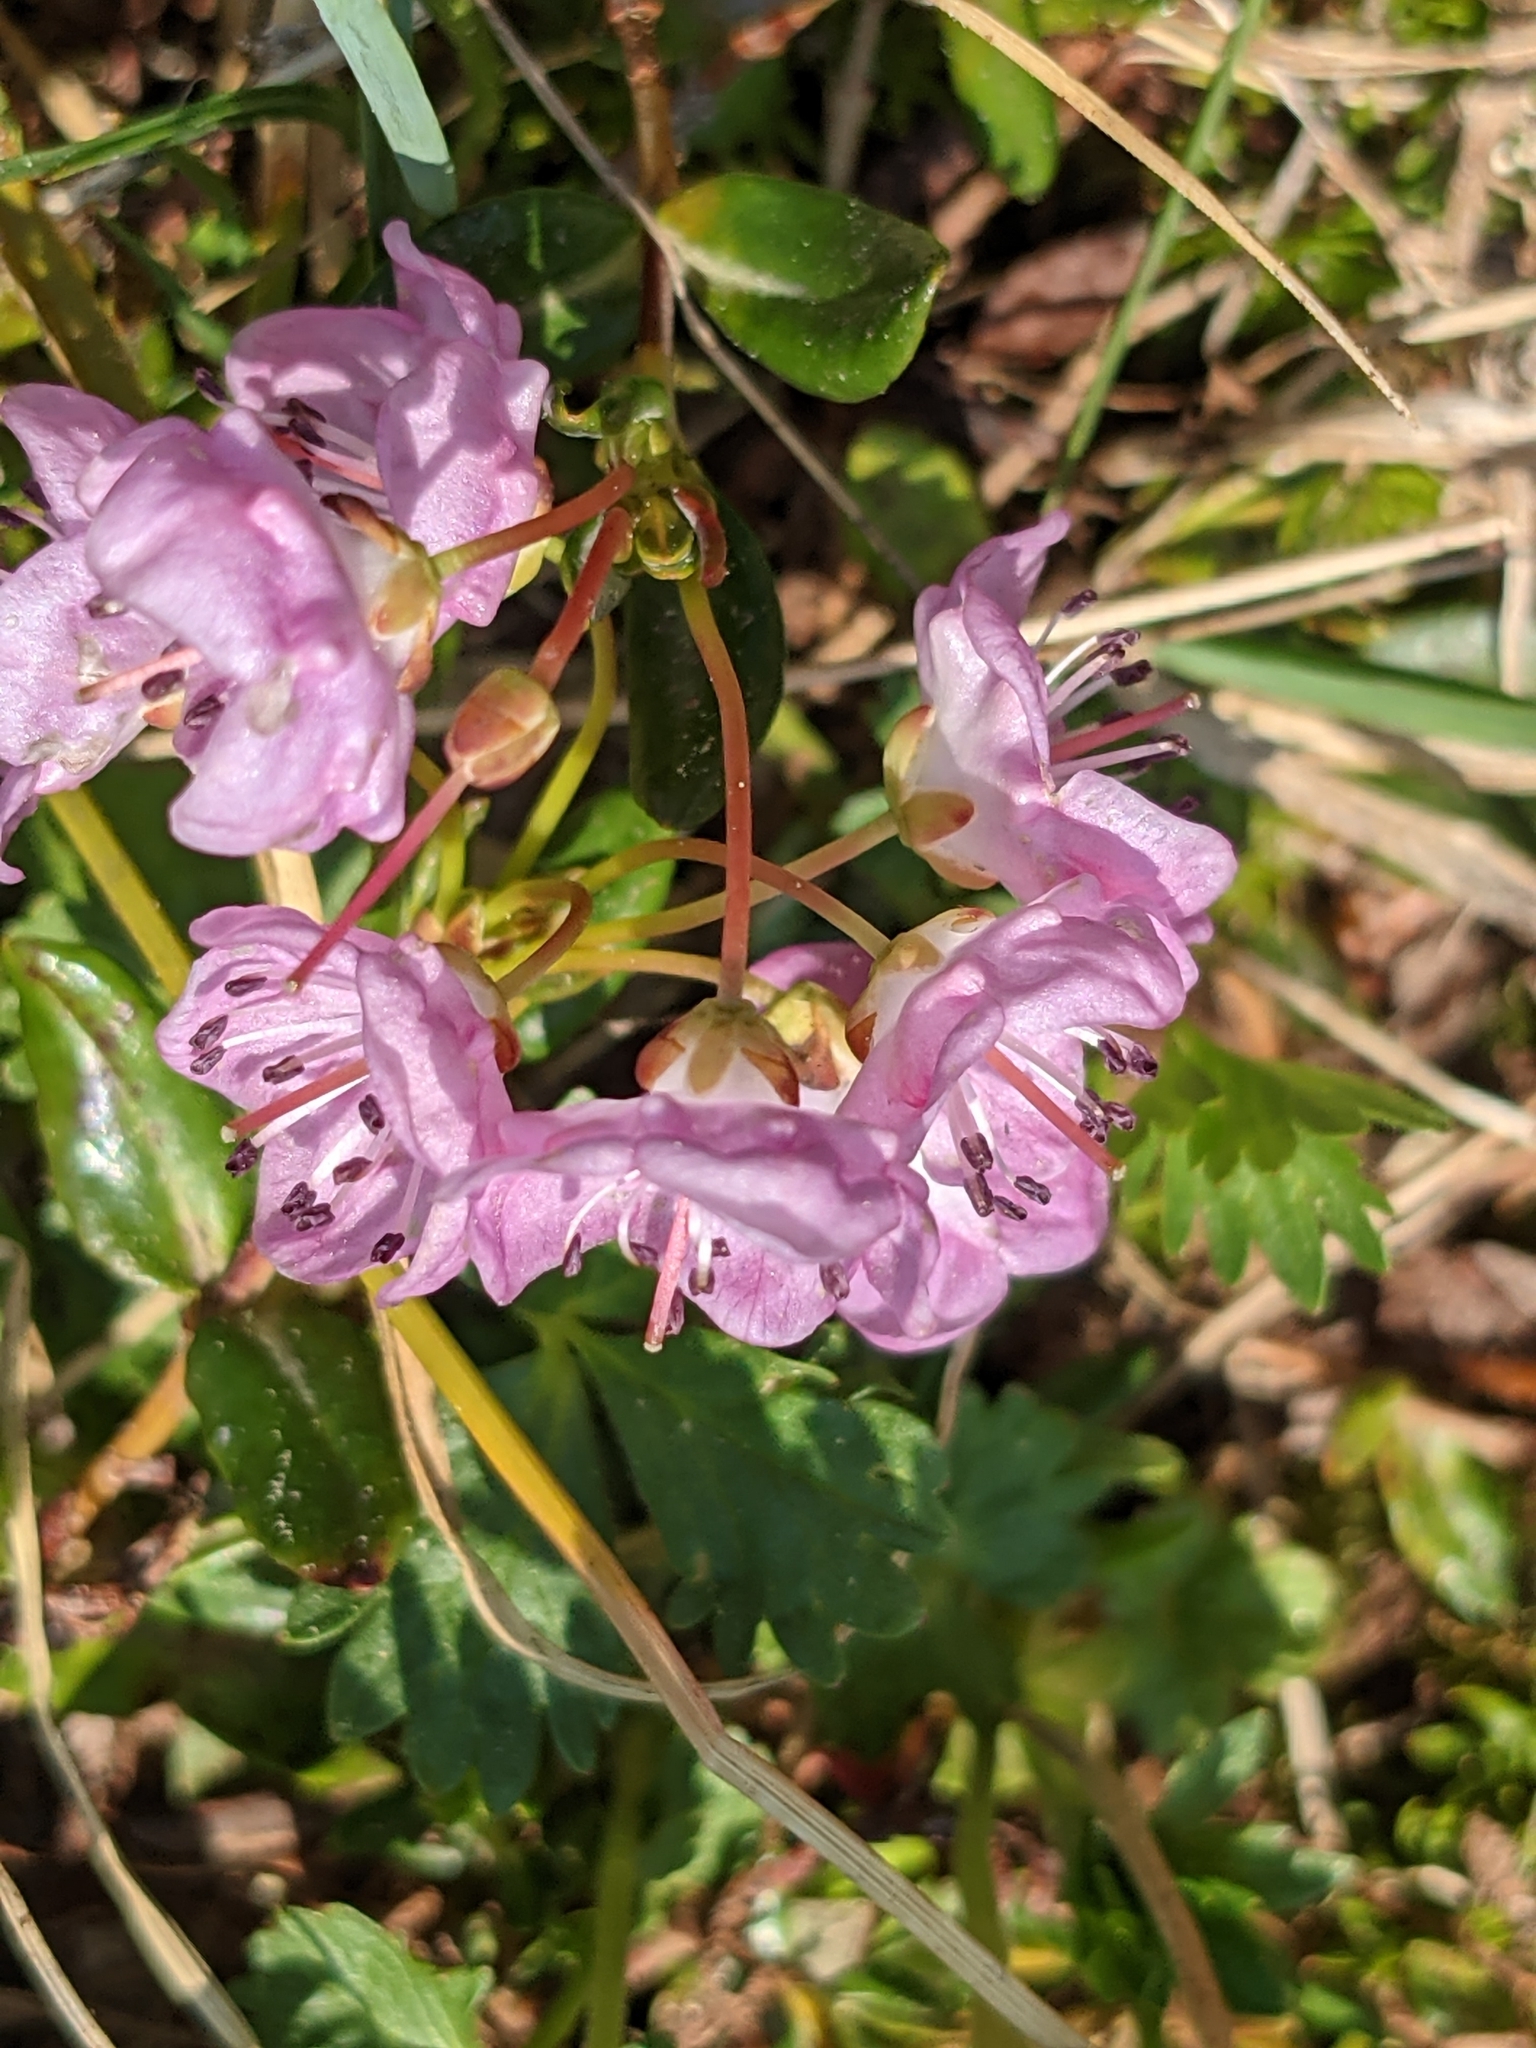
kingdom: Plantae
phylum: Tracheophyta
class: Magnoliopsida
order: Ericales
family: Ericaceae
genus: Kalmia
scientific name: Kalmia microphylla
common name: Alpine bog laurel
